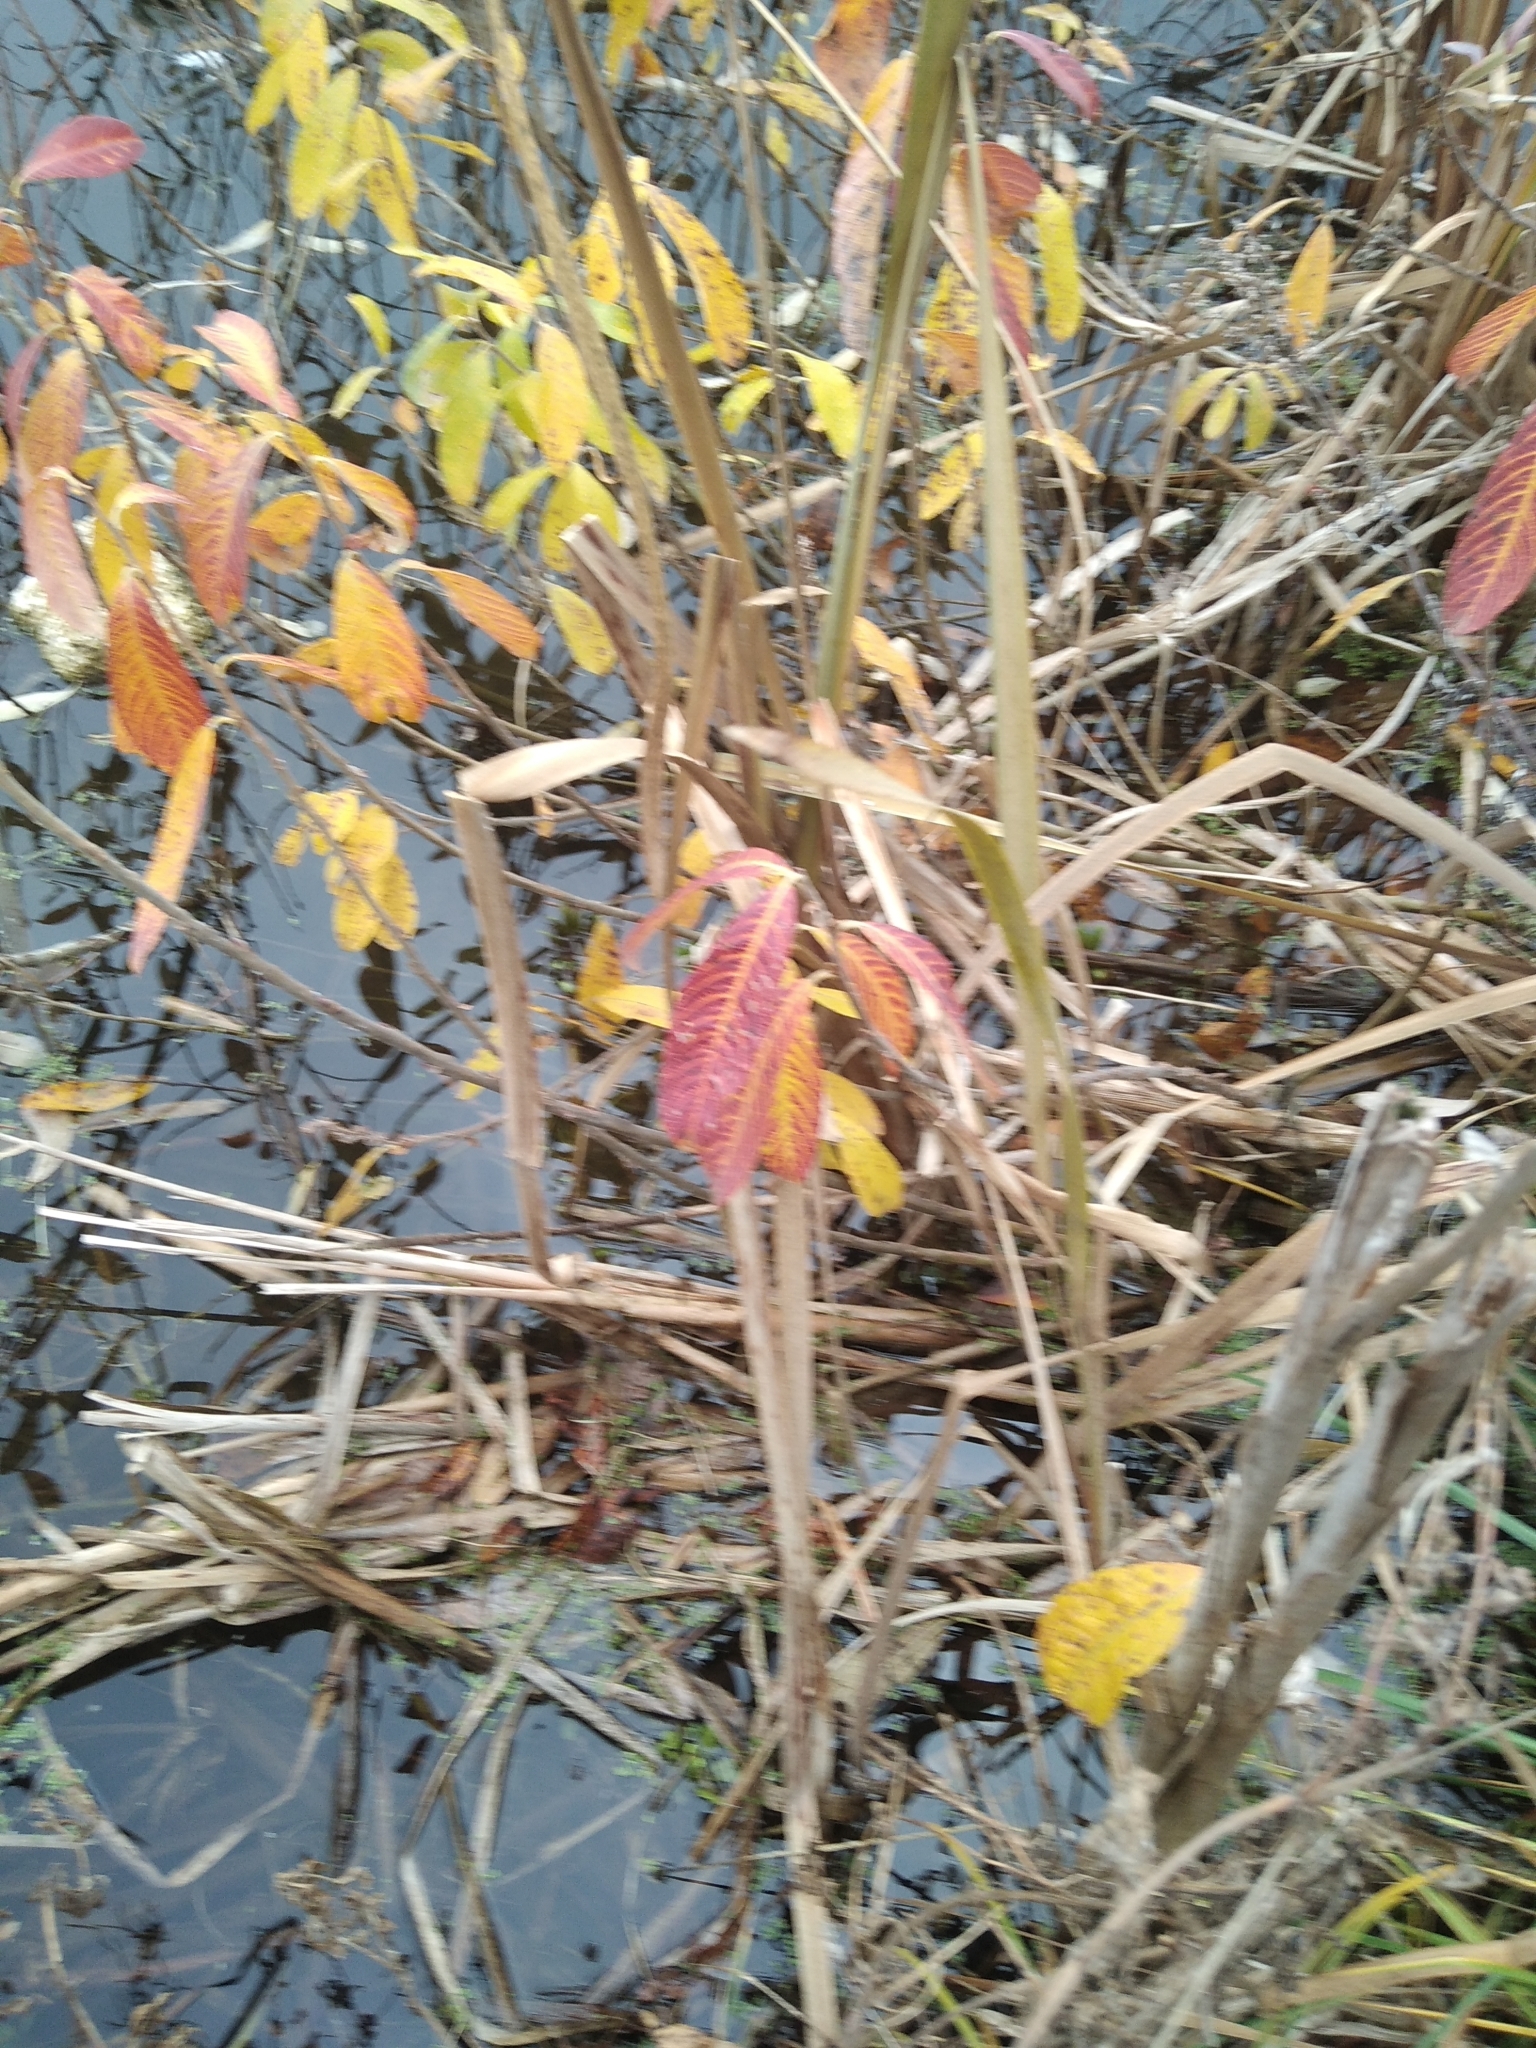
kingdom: Plantae
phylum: Tracheophyta
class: Magnoliopsida
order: Malpighiales
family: Salicaceae
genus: Salix
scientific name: Salix cinerea
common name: Common sallow
